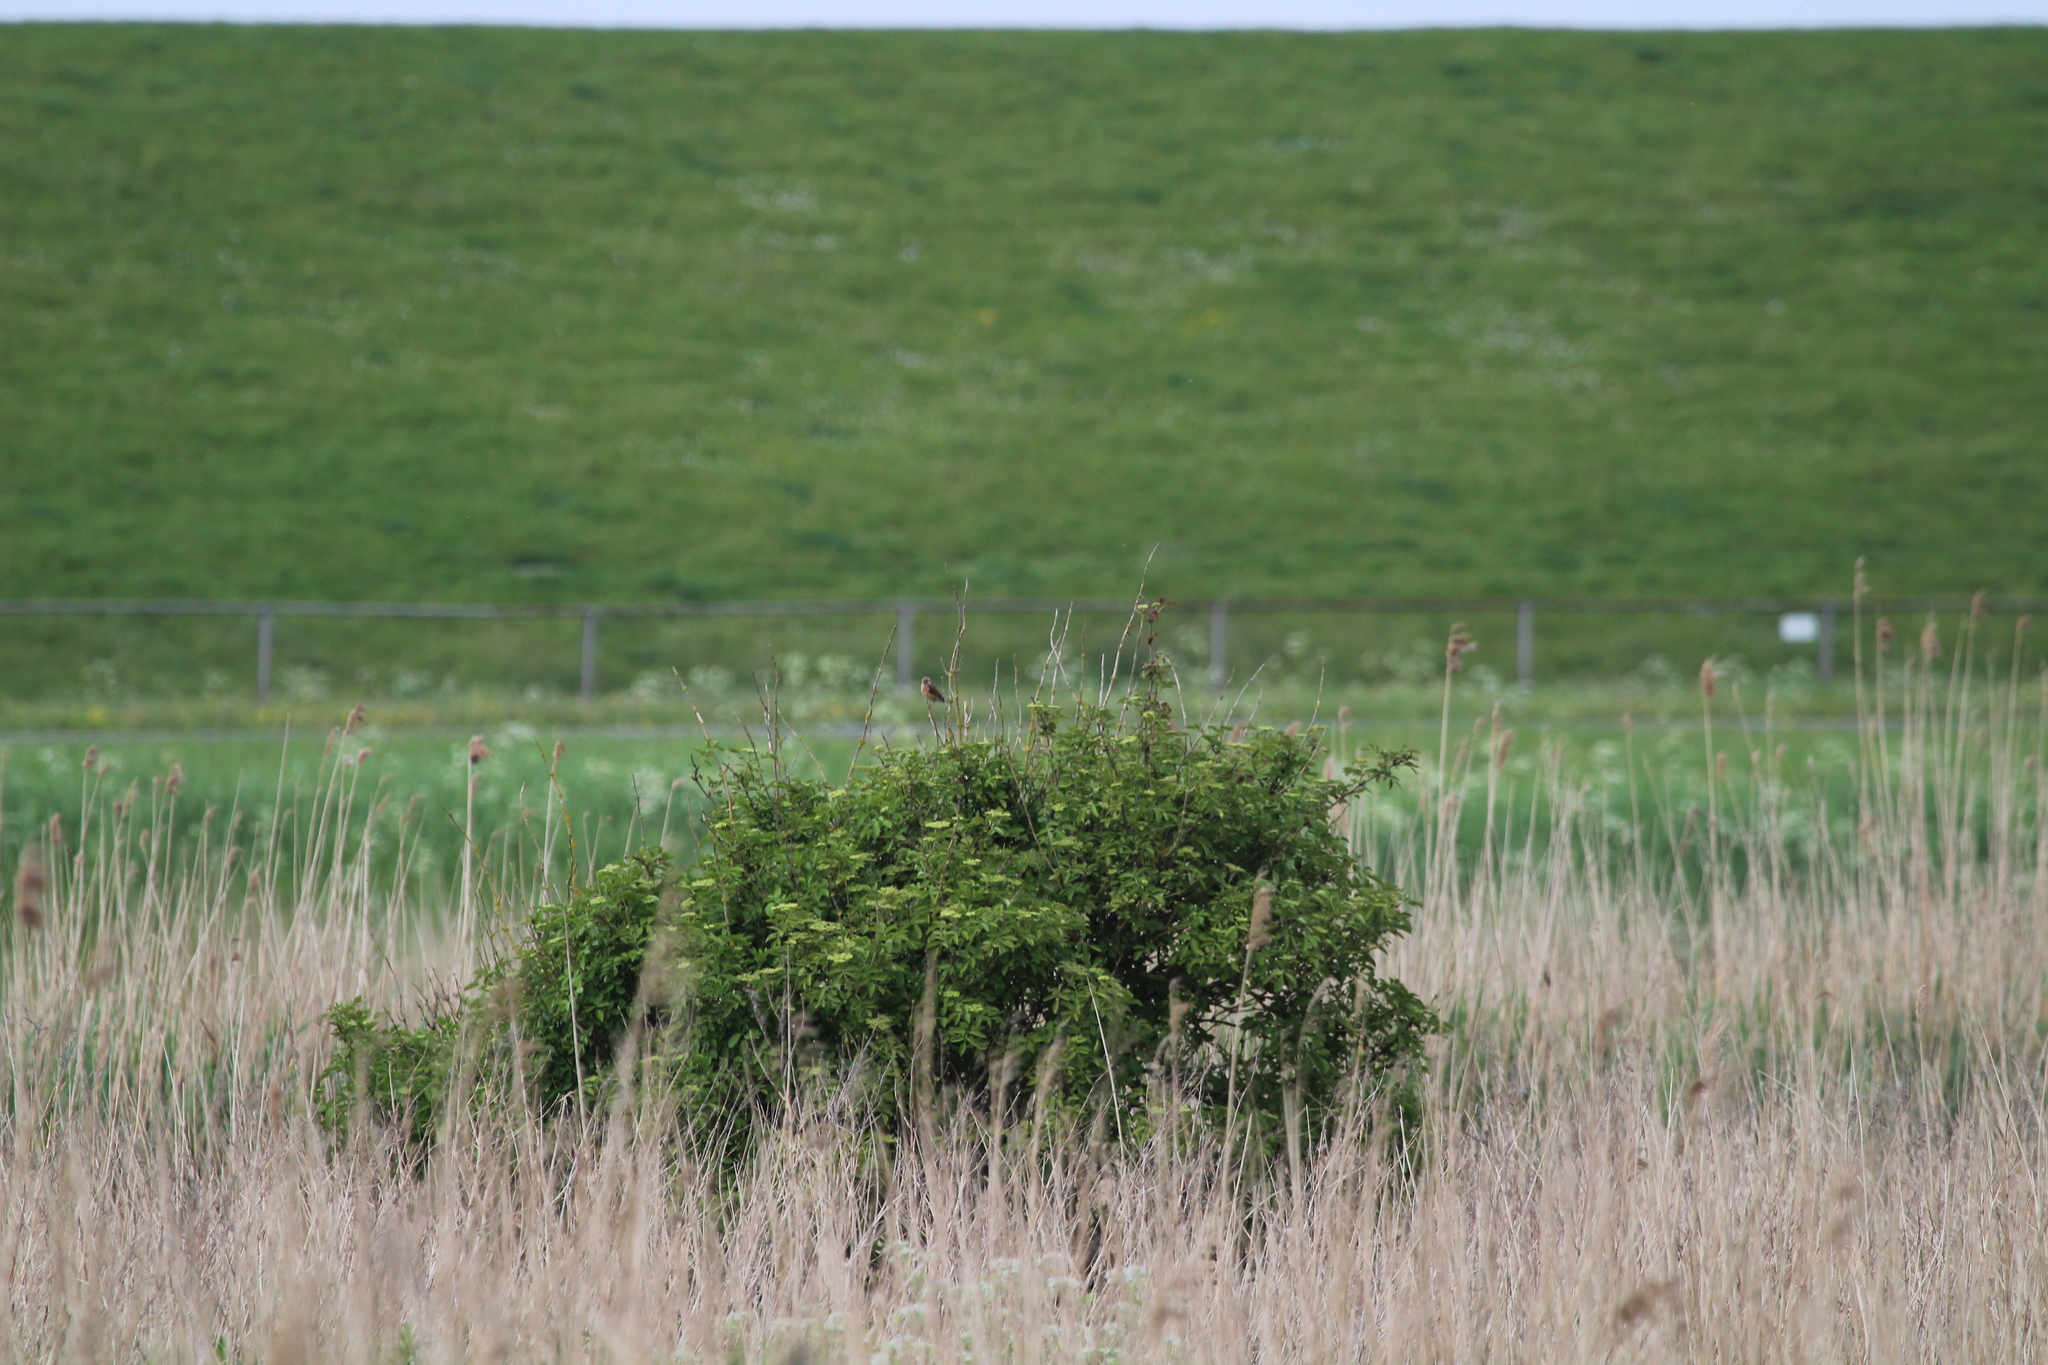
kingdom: Animalia
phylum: Chordata
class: Aves
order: Passeriformes
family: Fringillidae
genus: Linaria
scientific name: Linaria cannabina
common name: Common linnet
